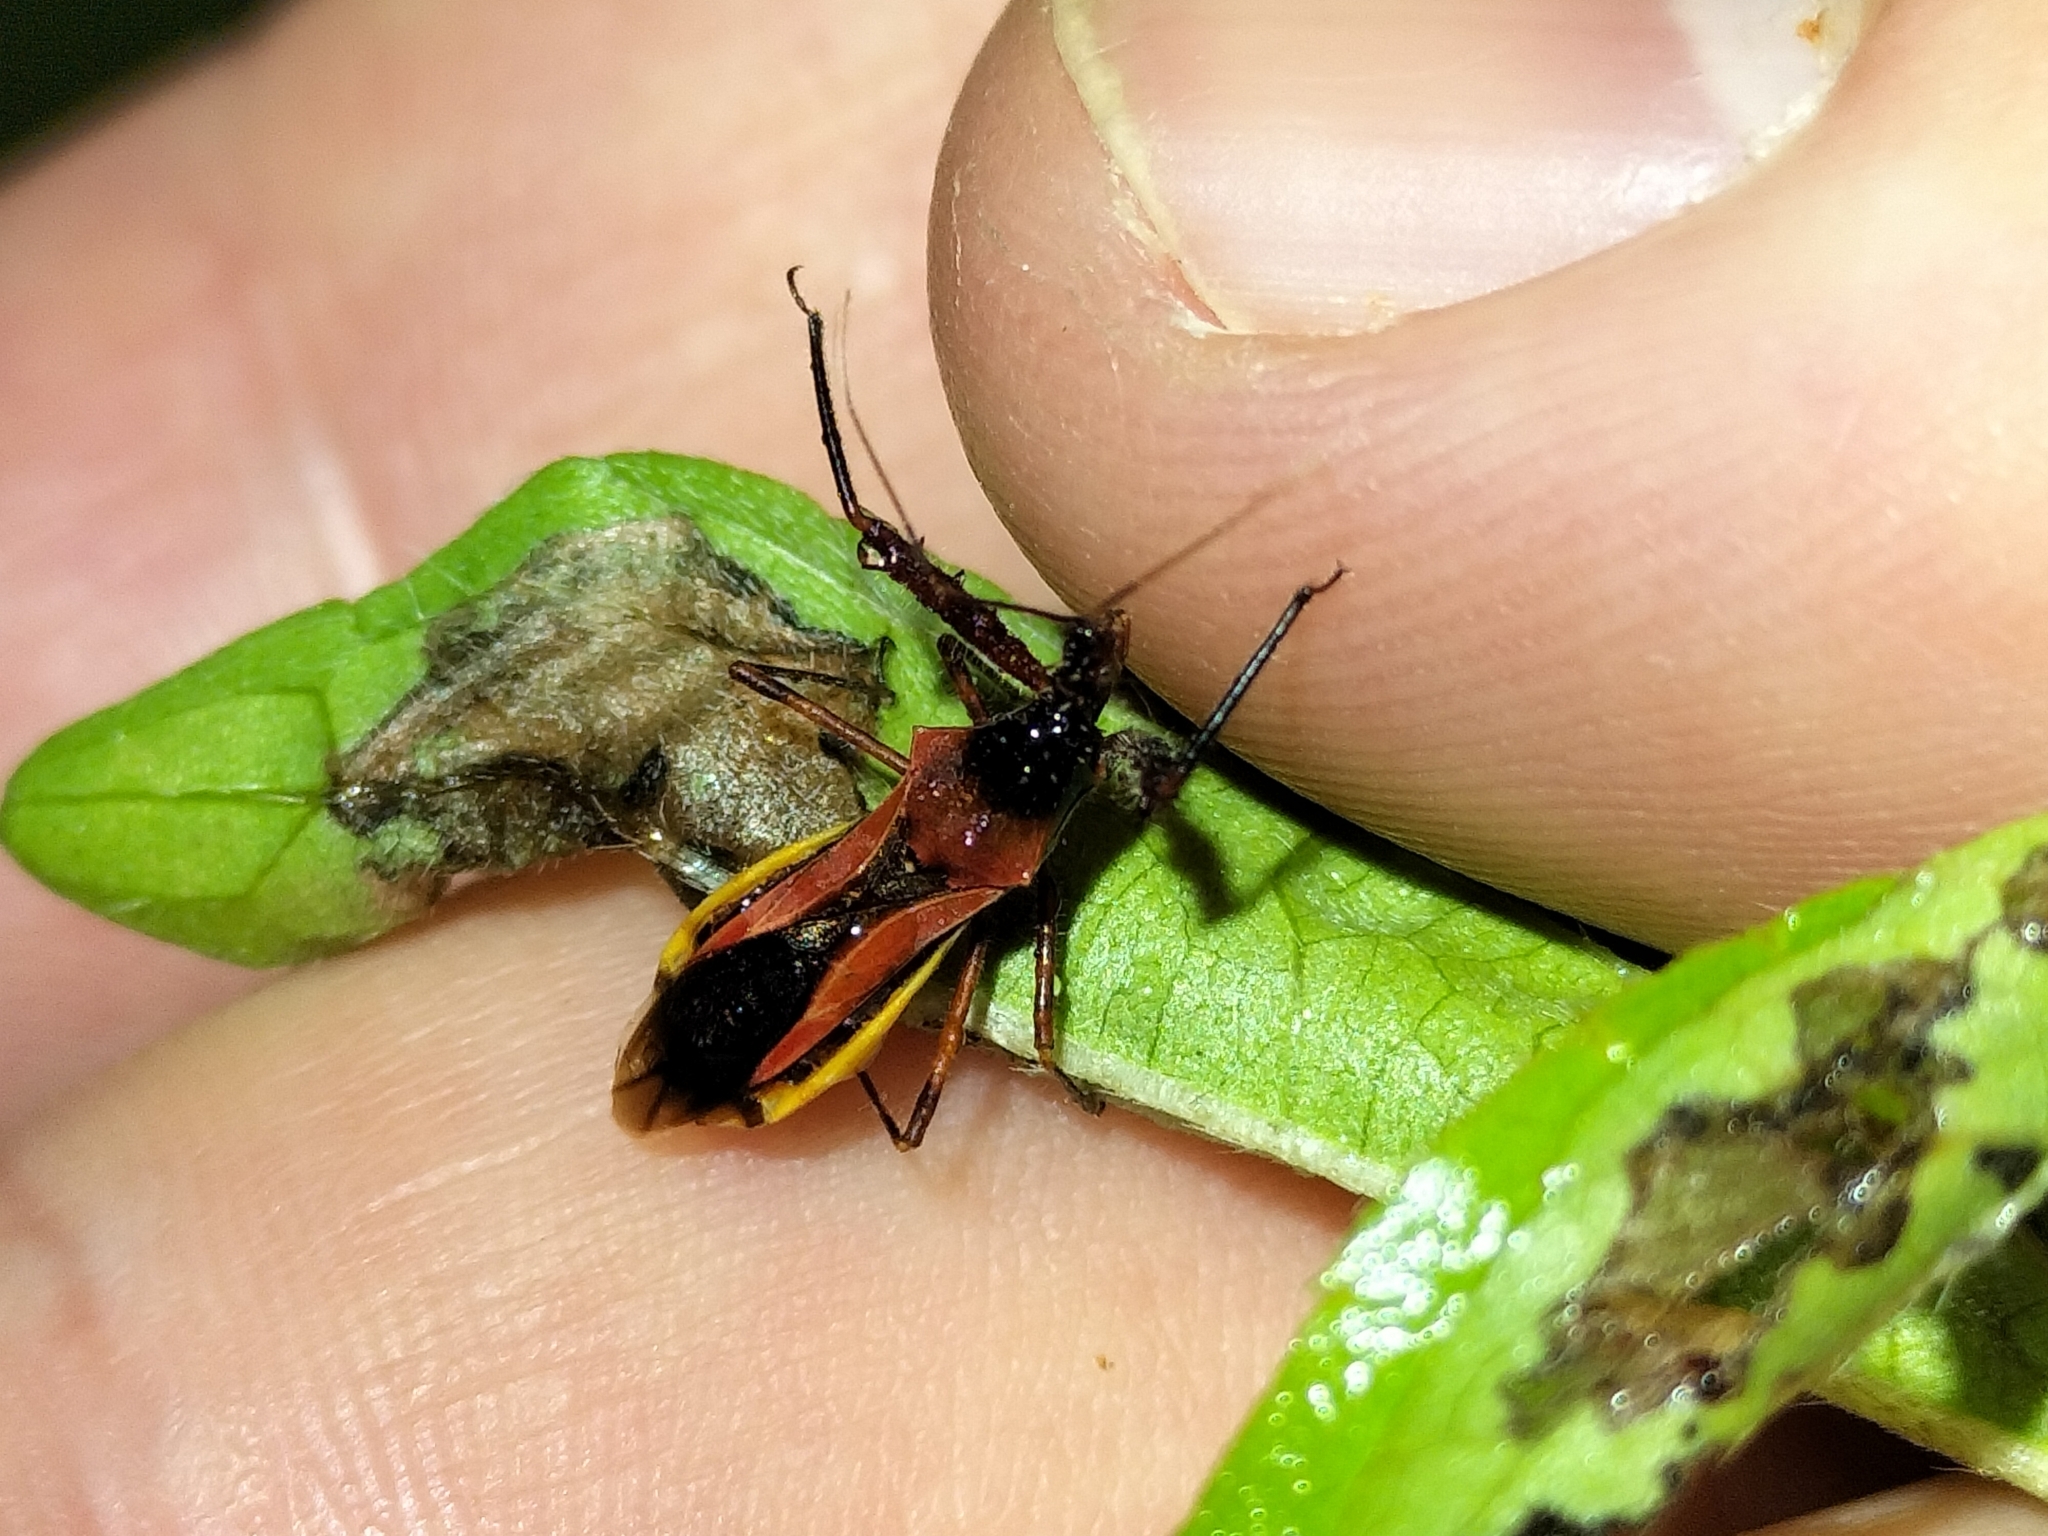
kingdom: Animalia
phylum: Arthropoda
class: Insecta
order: Hemiptera
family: Reduviidae
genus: Scipinia
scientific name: Scipinia arenacea
